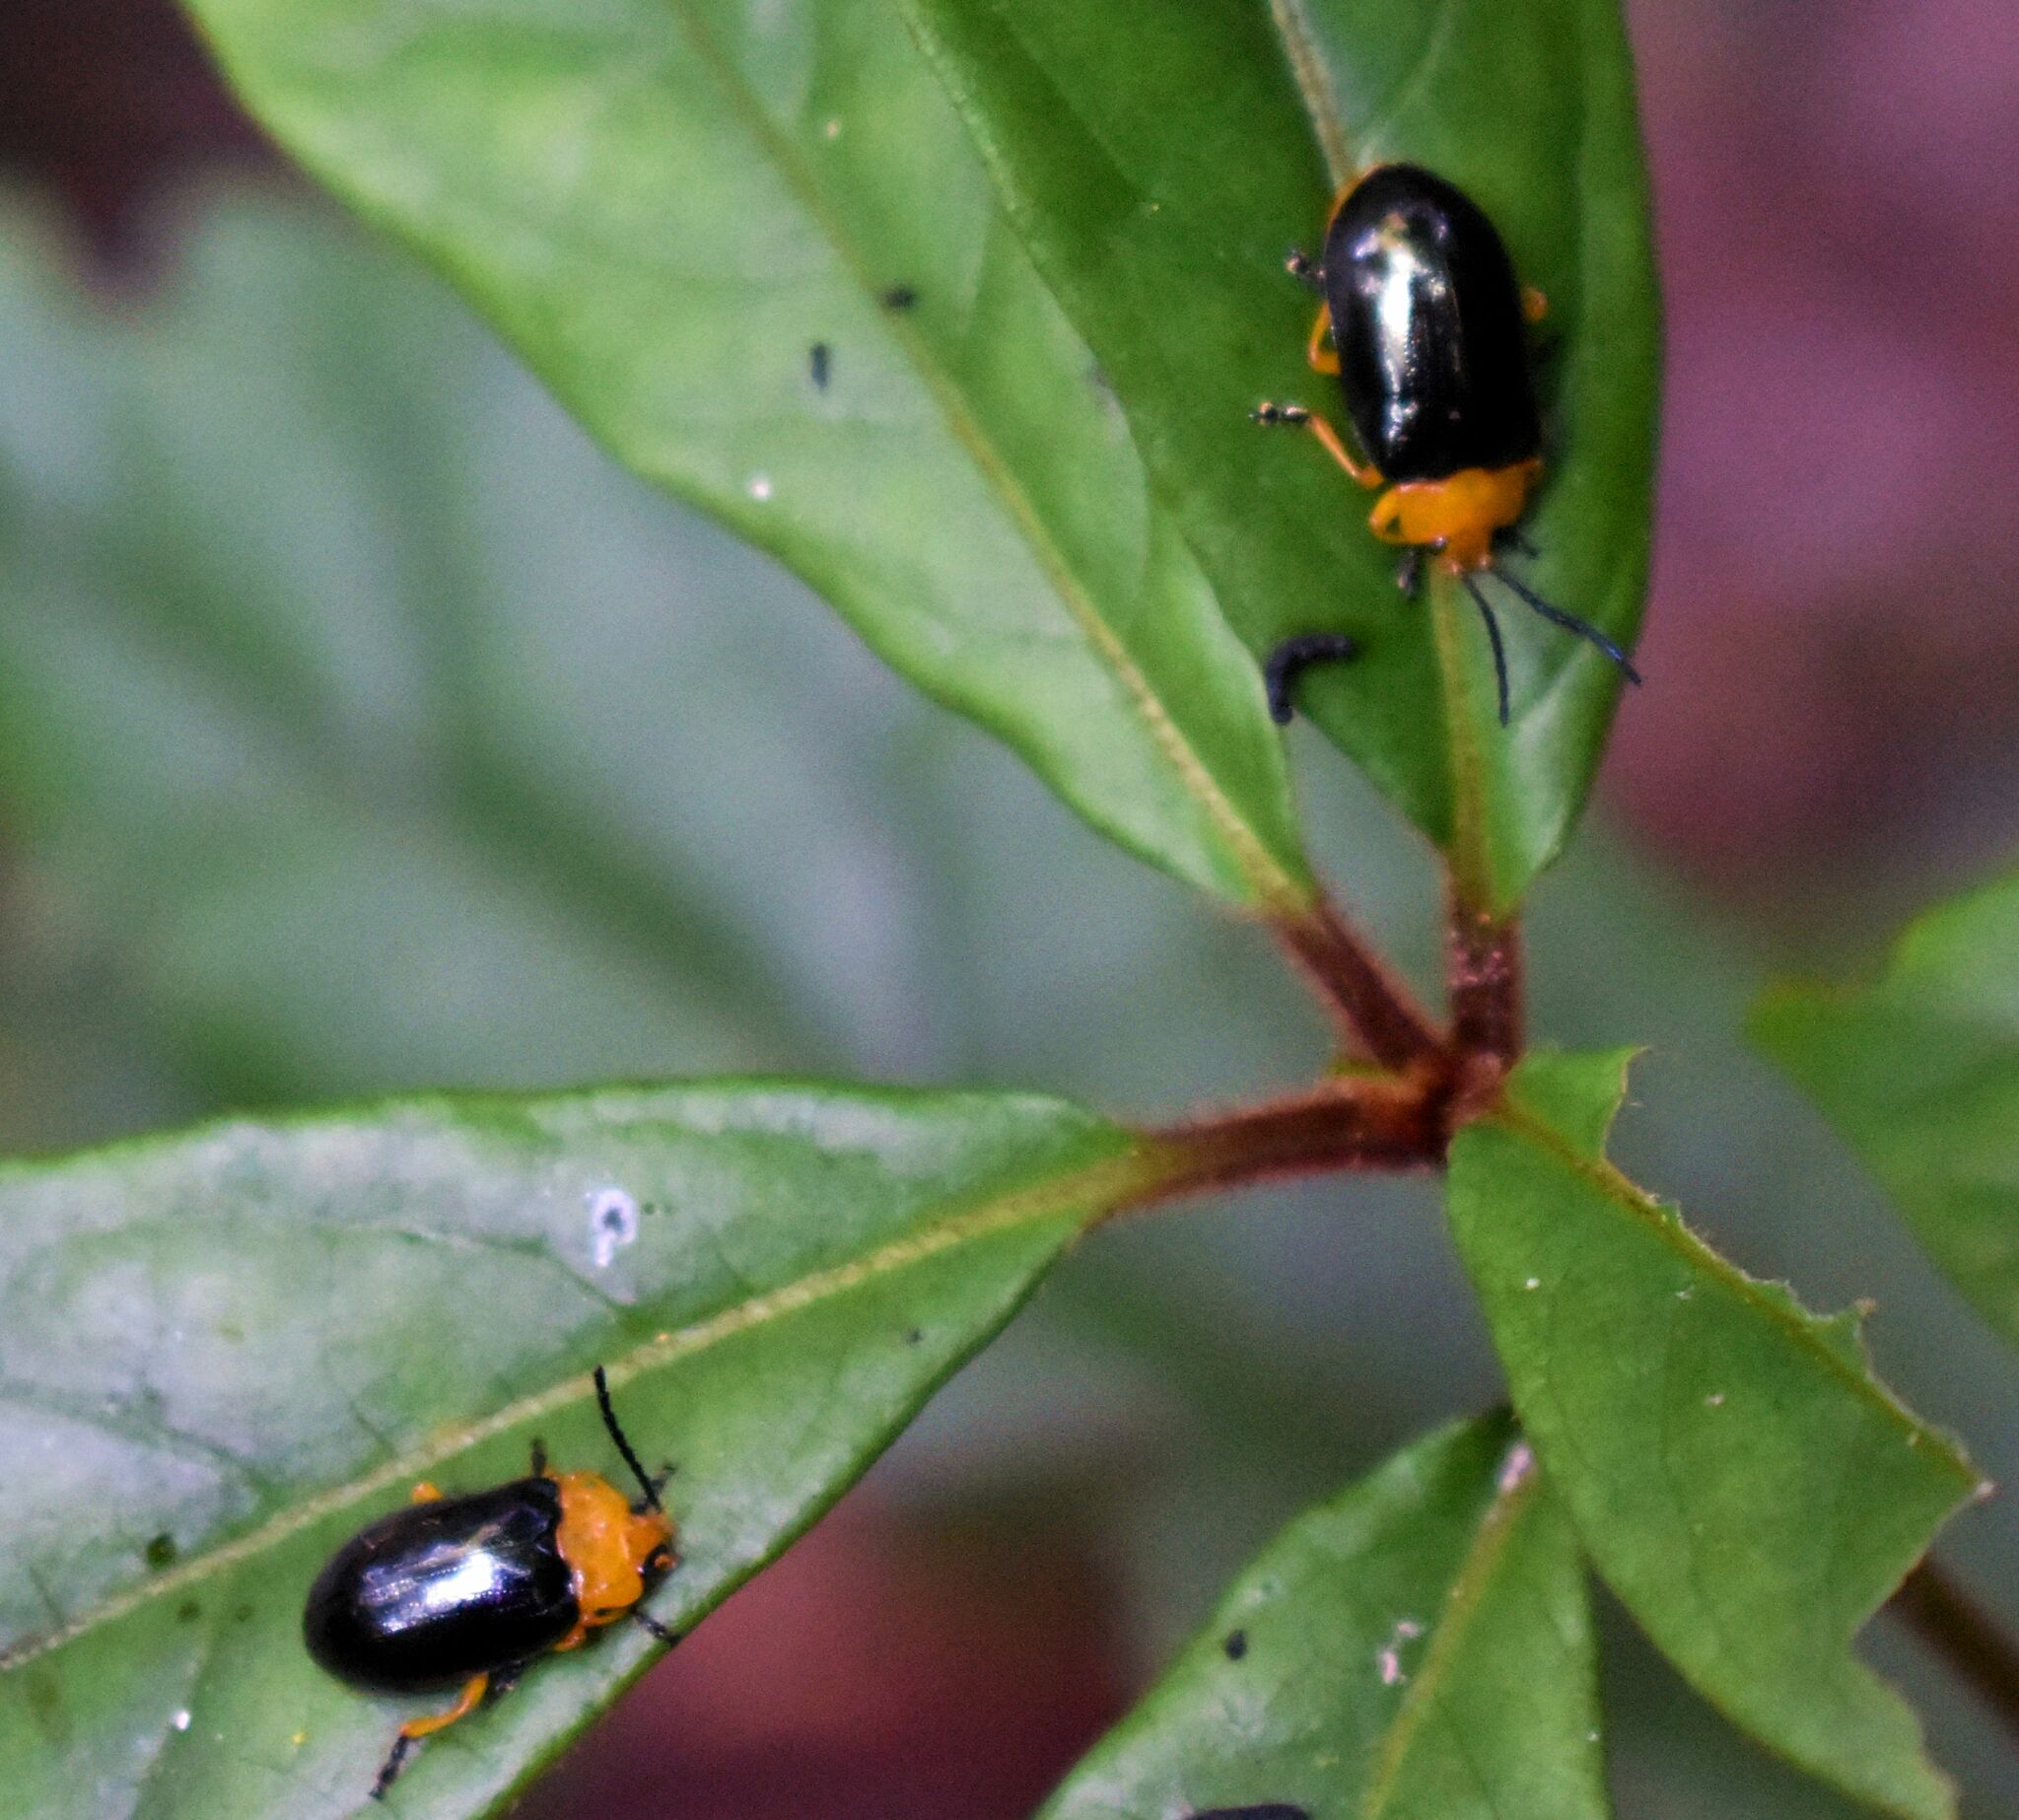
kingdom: Animalia
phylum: Arthropoda
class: Insecta
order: Coleoptera
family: Chrysomelidae
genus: Lamprolina
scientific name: Lamprolina
